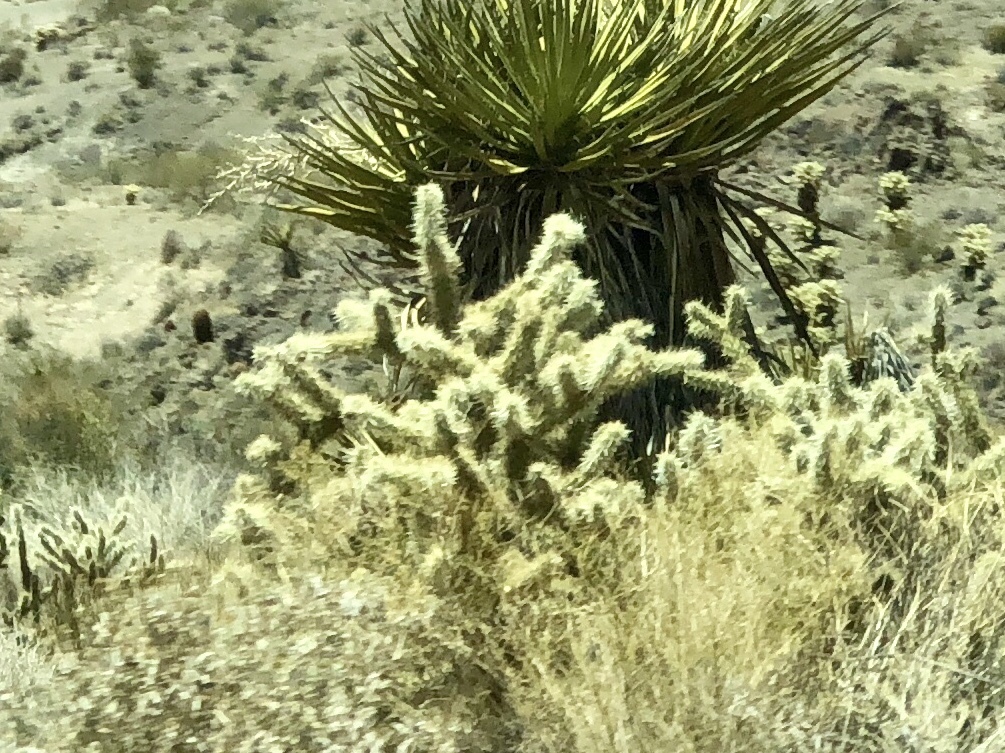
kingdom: Plantae
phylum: Tracheophyta
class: Magnoliopsida
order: Caryophyllales
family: Cactaceae
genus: Cylindropuntia
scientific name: Cylindropuntia acanthocarpa
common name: Buckhorn cholla
